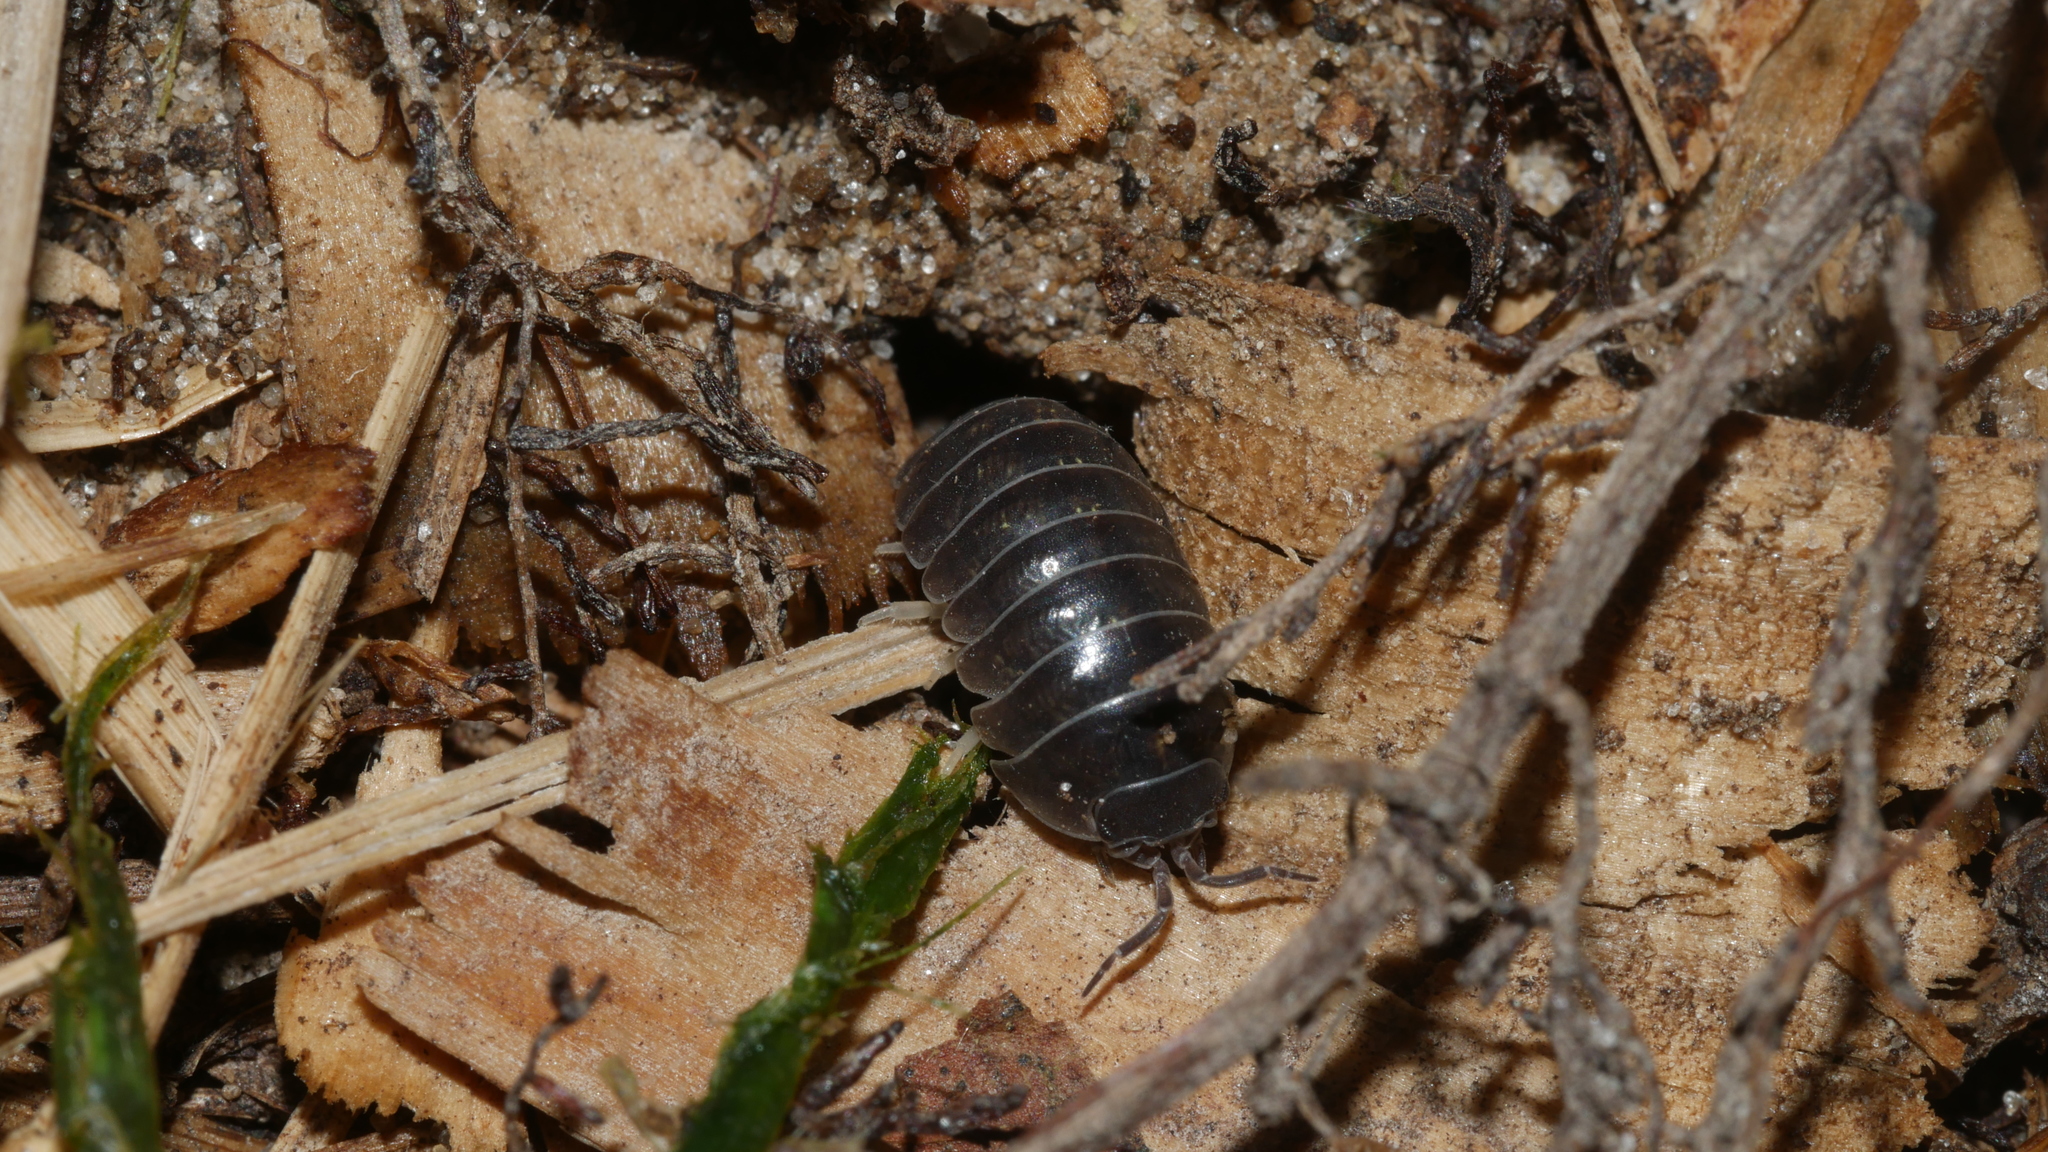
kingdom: Animalia
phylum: Arthropoda
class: Malacostraca
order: Isopoda
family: Armadillidiidae
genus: Armadillidium
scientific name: Armadillidium vulgare
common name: Common pill woodlouse
